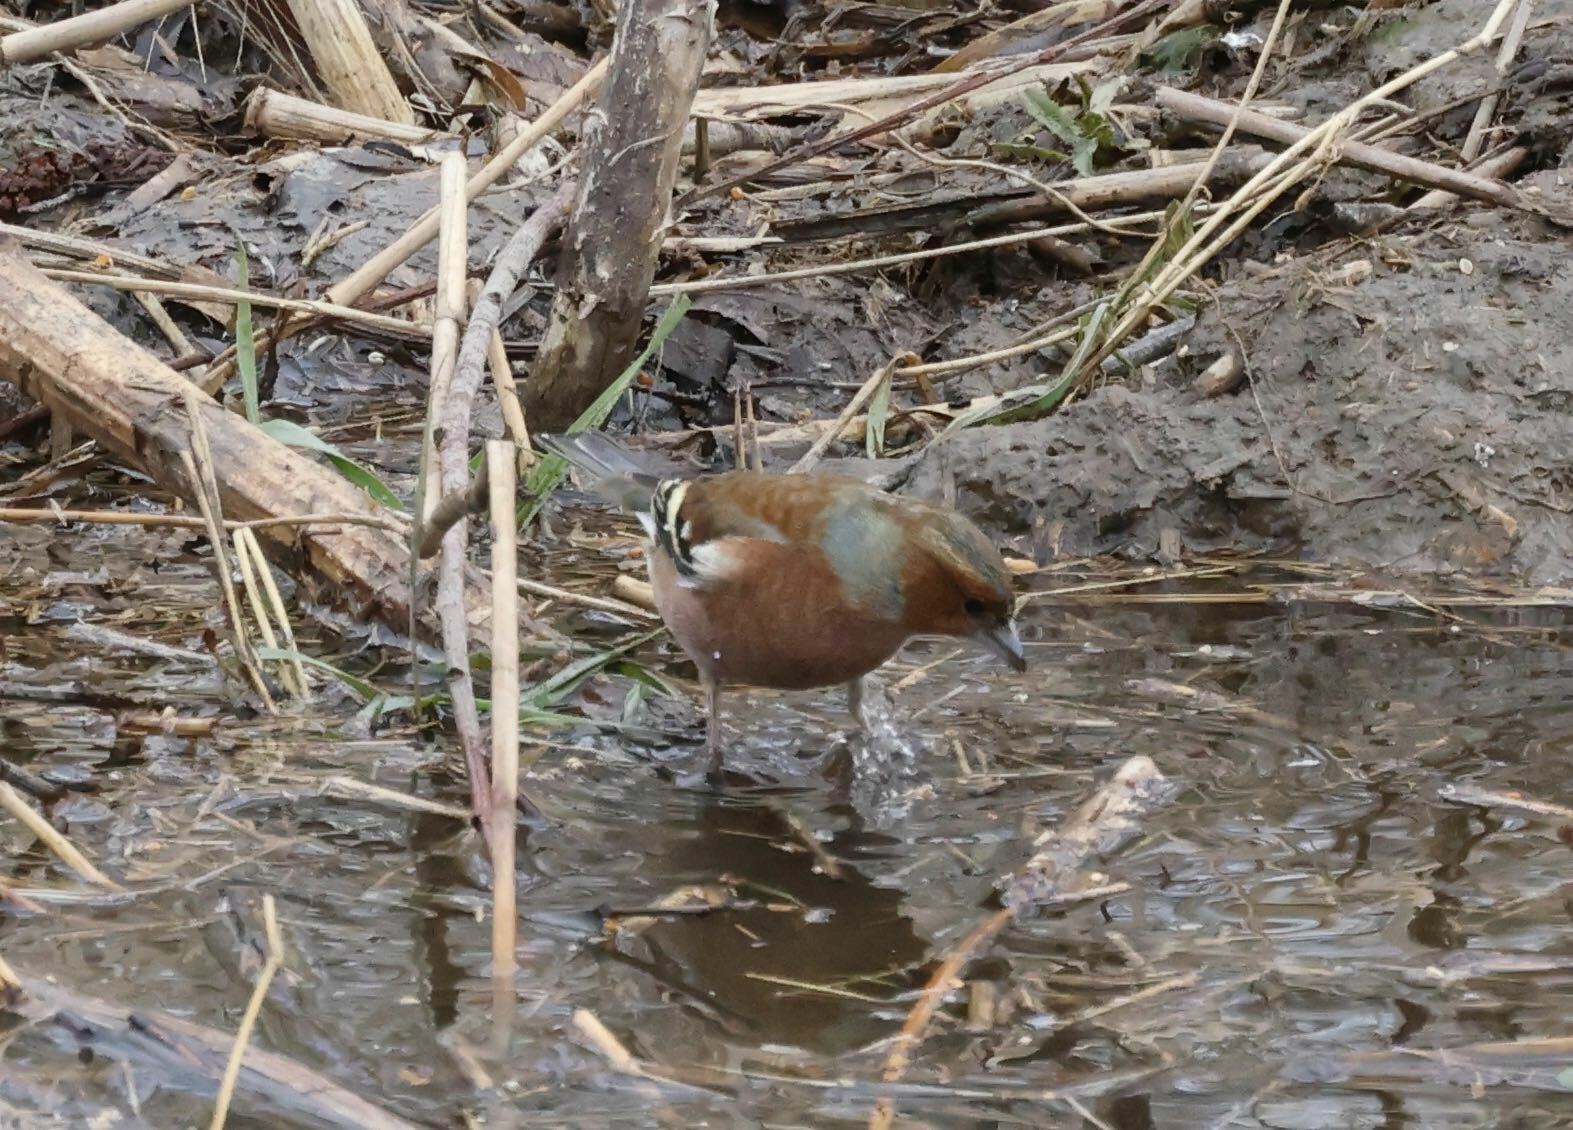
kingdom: Animalia
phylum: Chordata
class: Aves
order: Passeriformes
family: Fringillidae
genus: Fringilla
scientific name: Fringilla coelebs
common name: Common chaffinch
